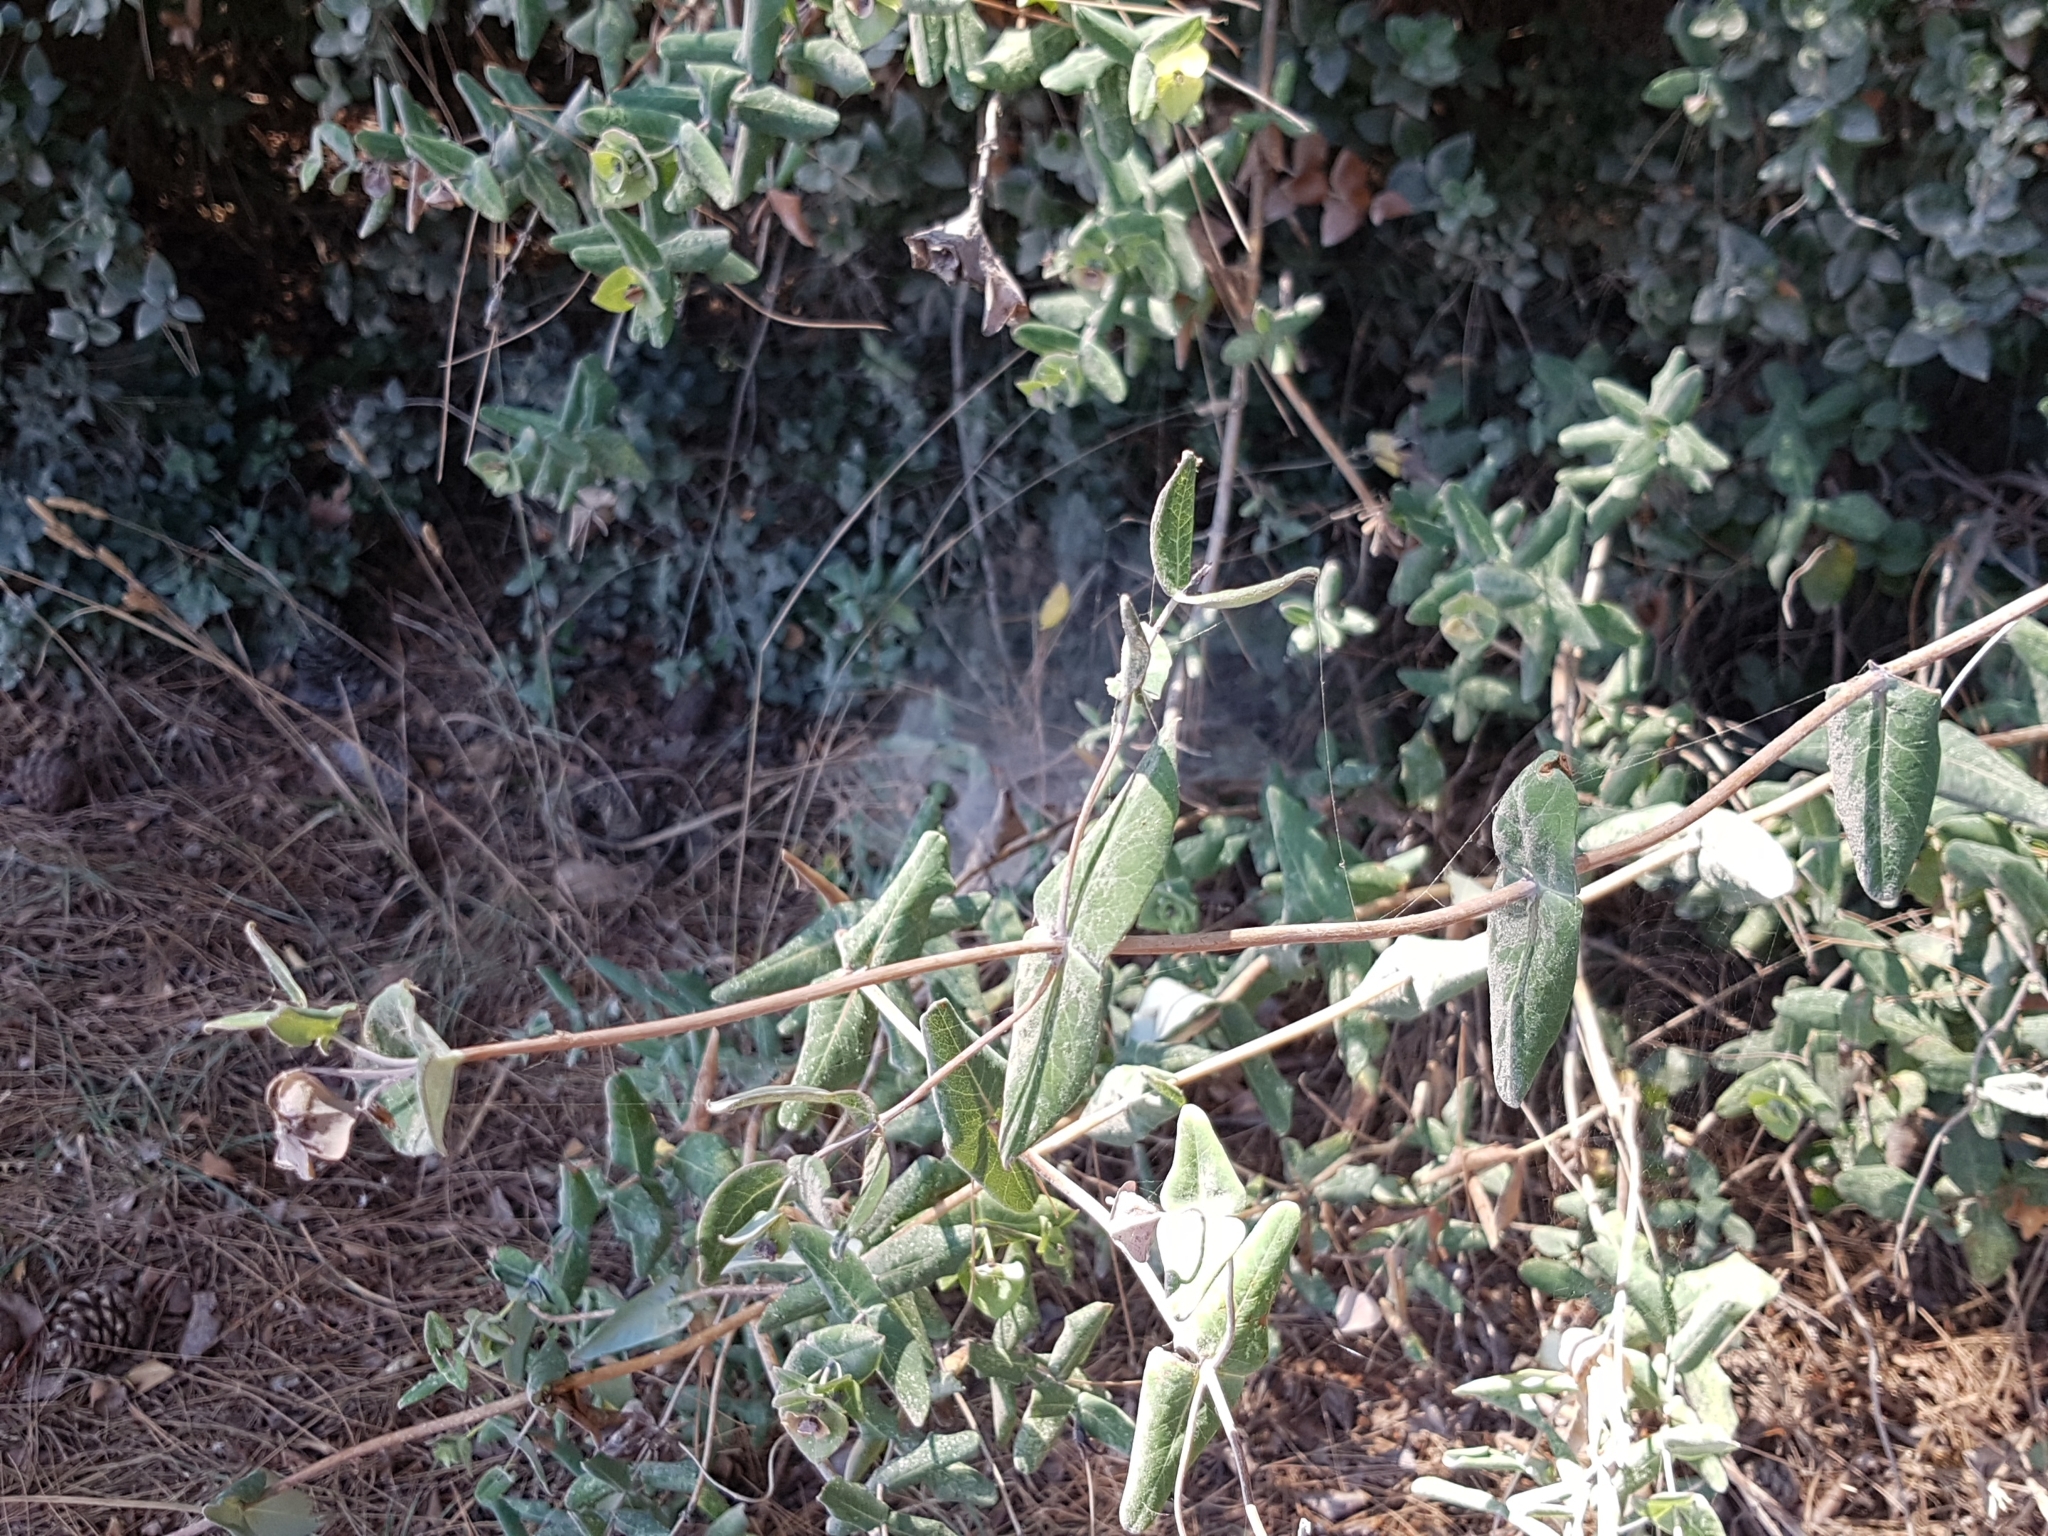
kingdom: Plantae
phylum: Tracheophyta
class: Magnoliopsida
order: Dipsacales
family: Caprifoliaceae
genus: Lonicera
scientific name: Lonicera implexa
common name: Minorca honeysuckle
